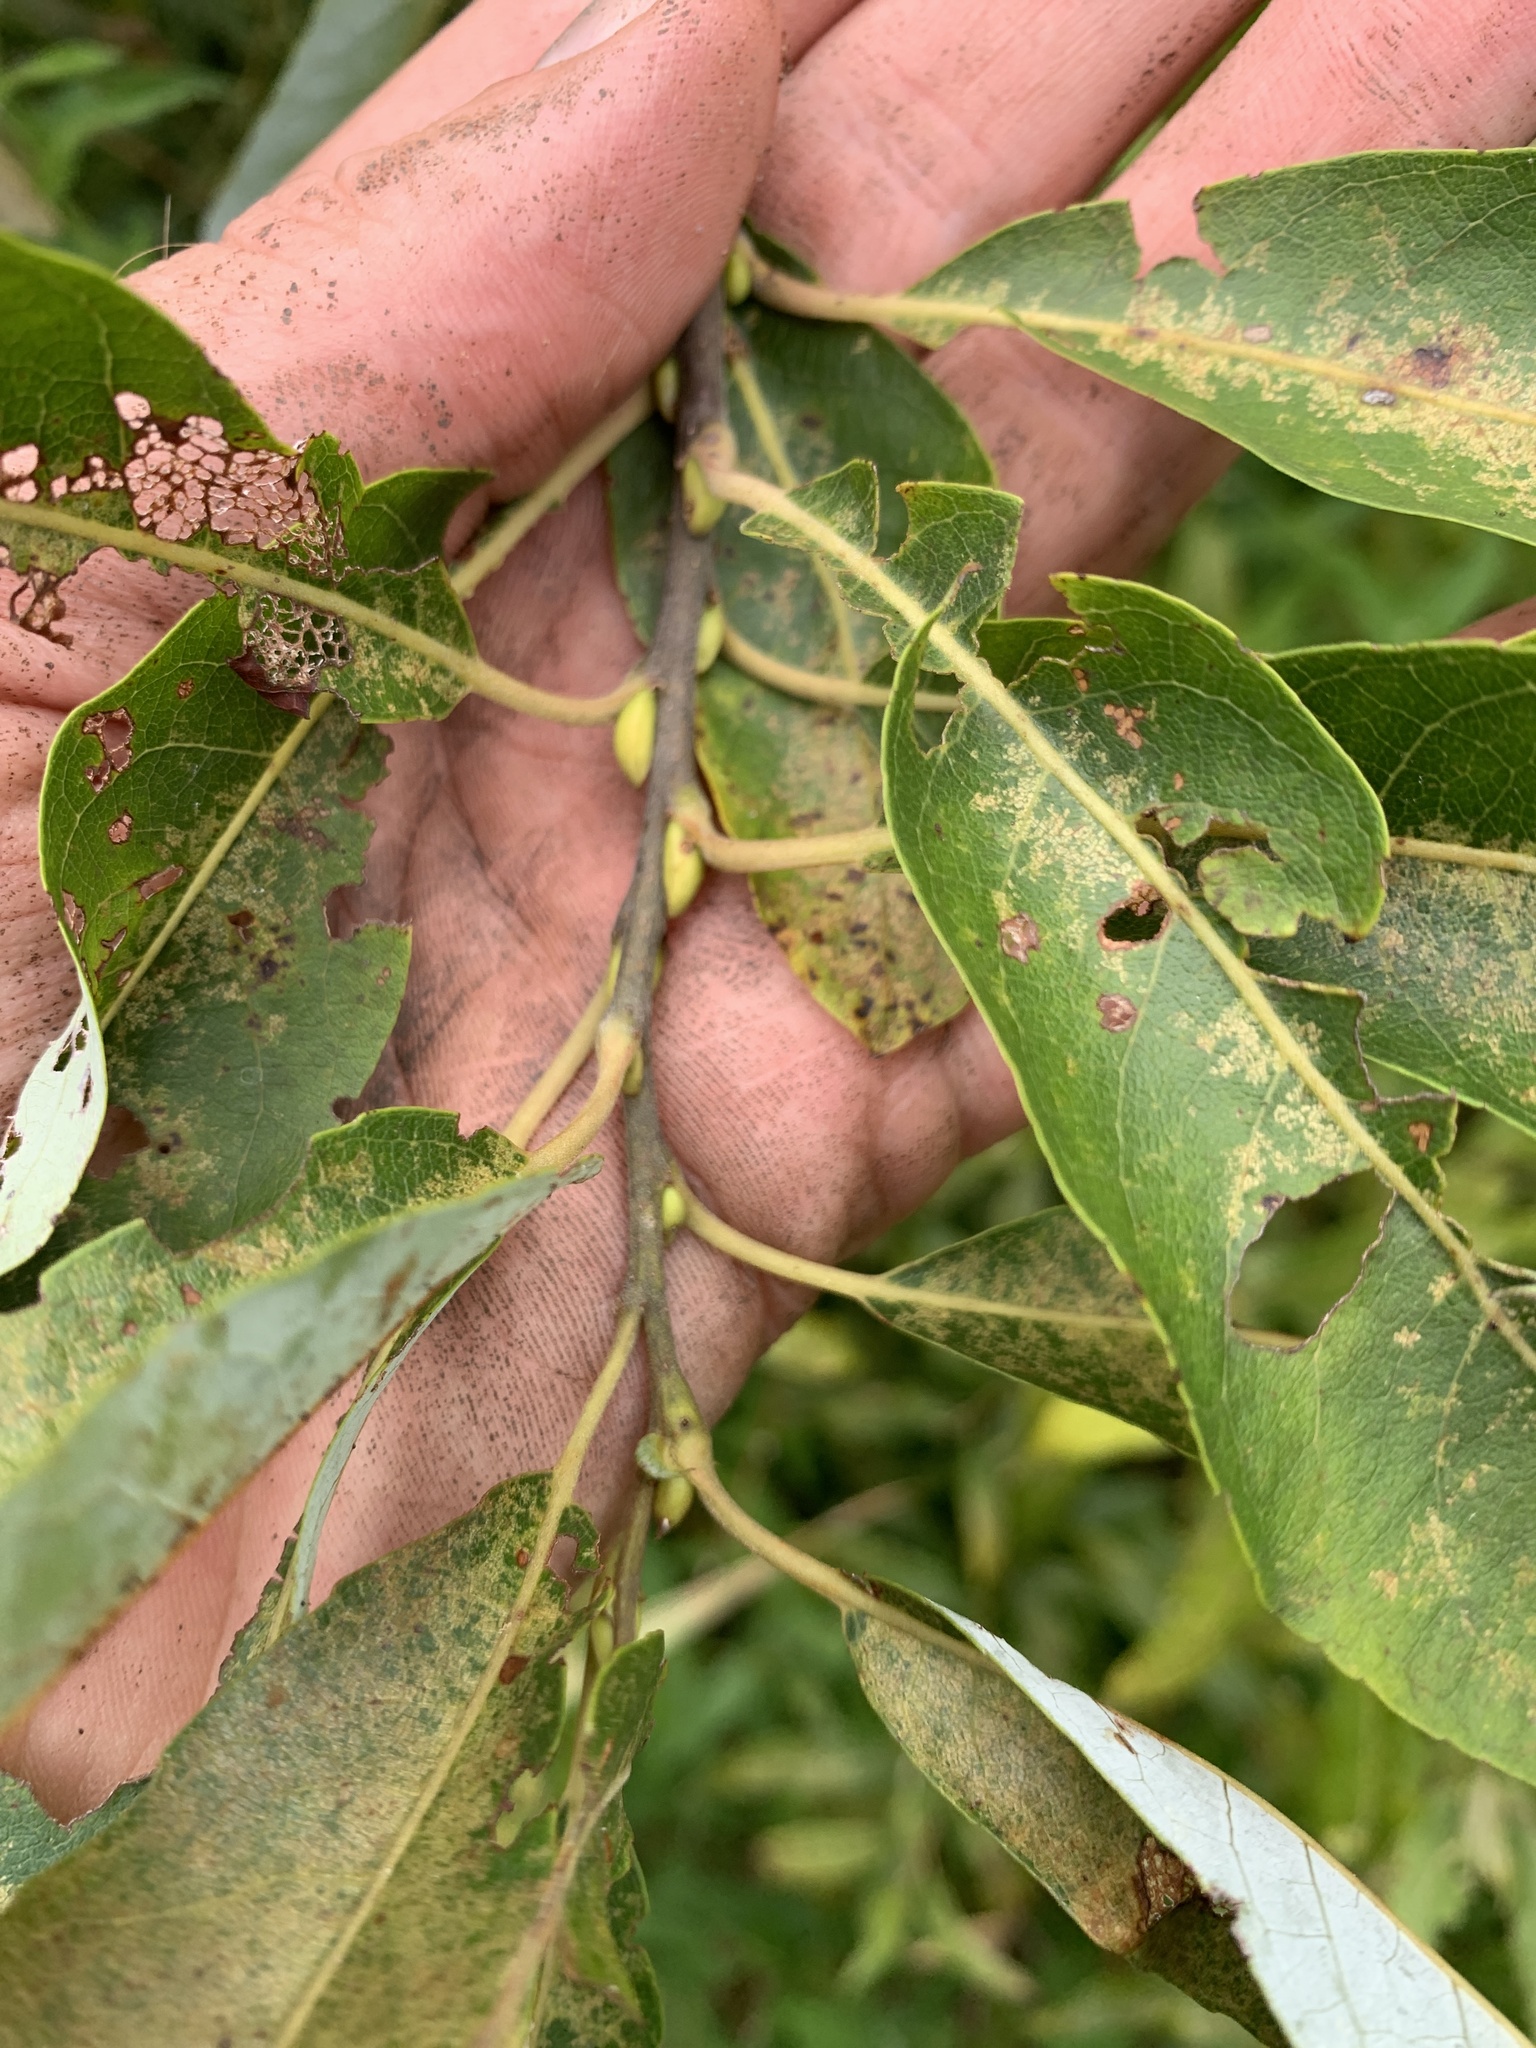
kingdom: Plantae
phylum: Tracheophyta
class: Magnoliopsida
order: Malpighiales
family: Salicaceae
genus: Salix
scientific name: Salix discolor
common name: Glaucous willow
